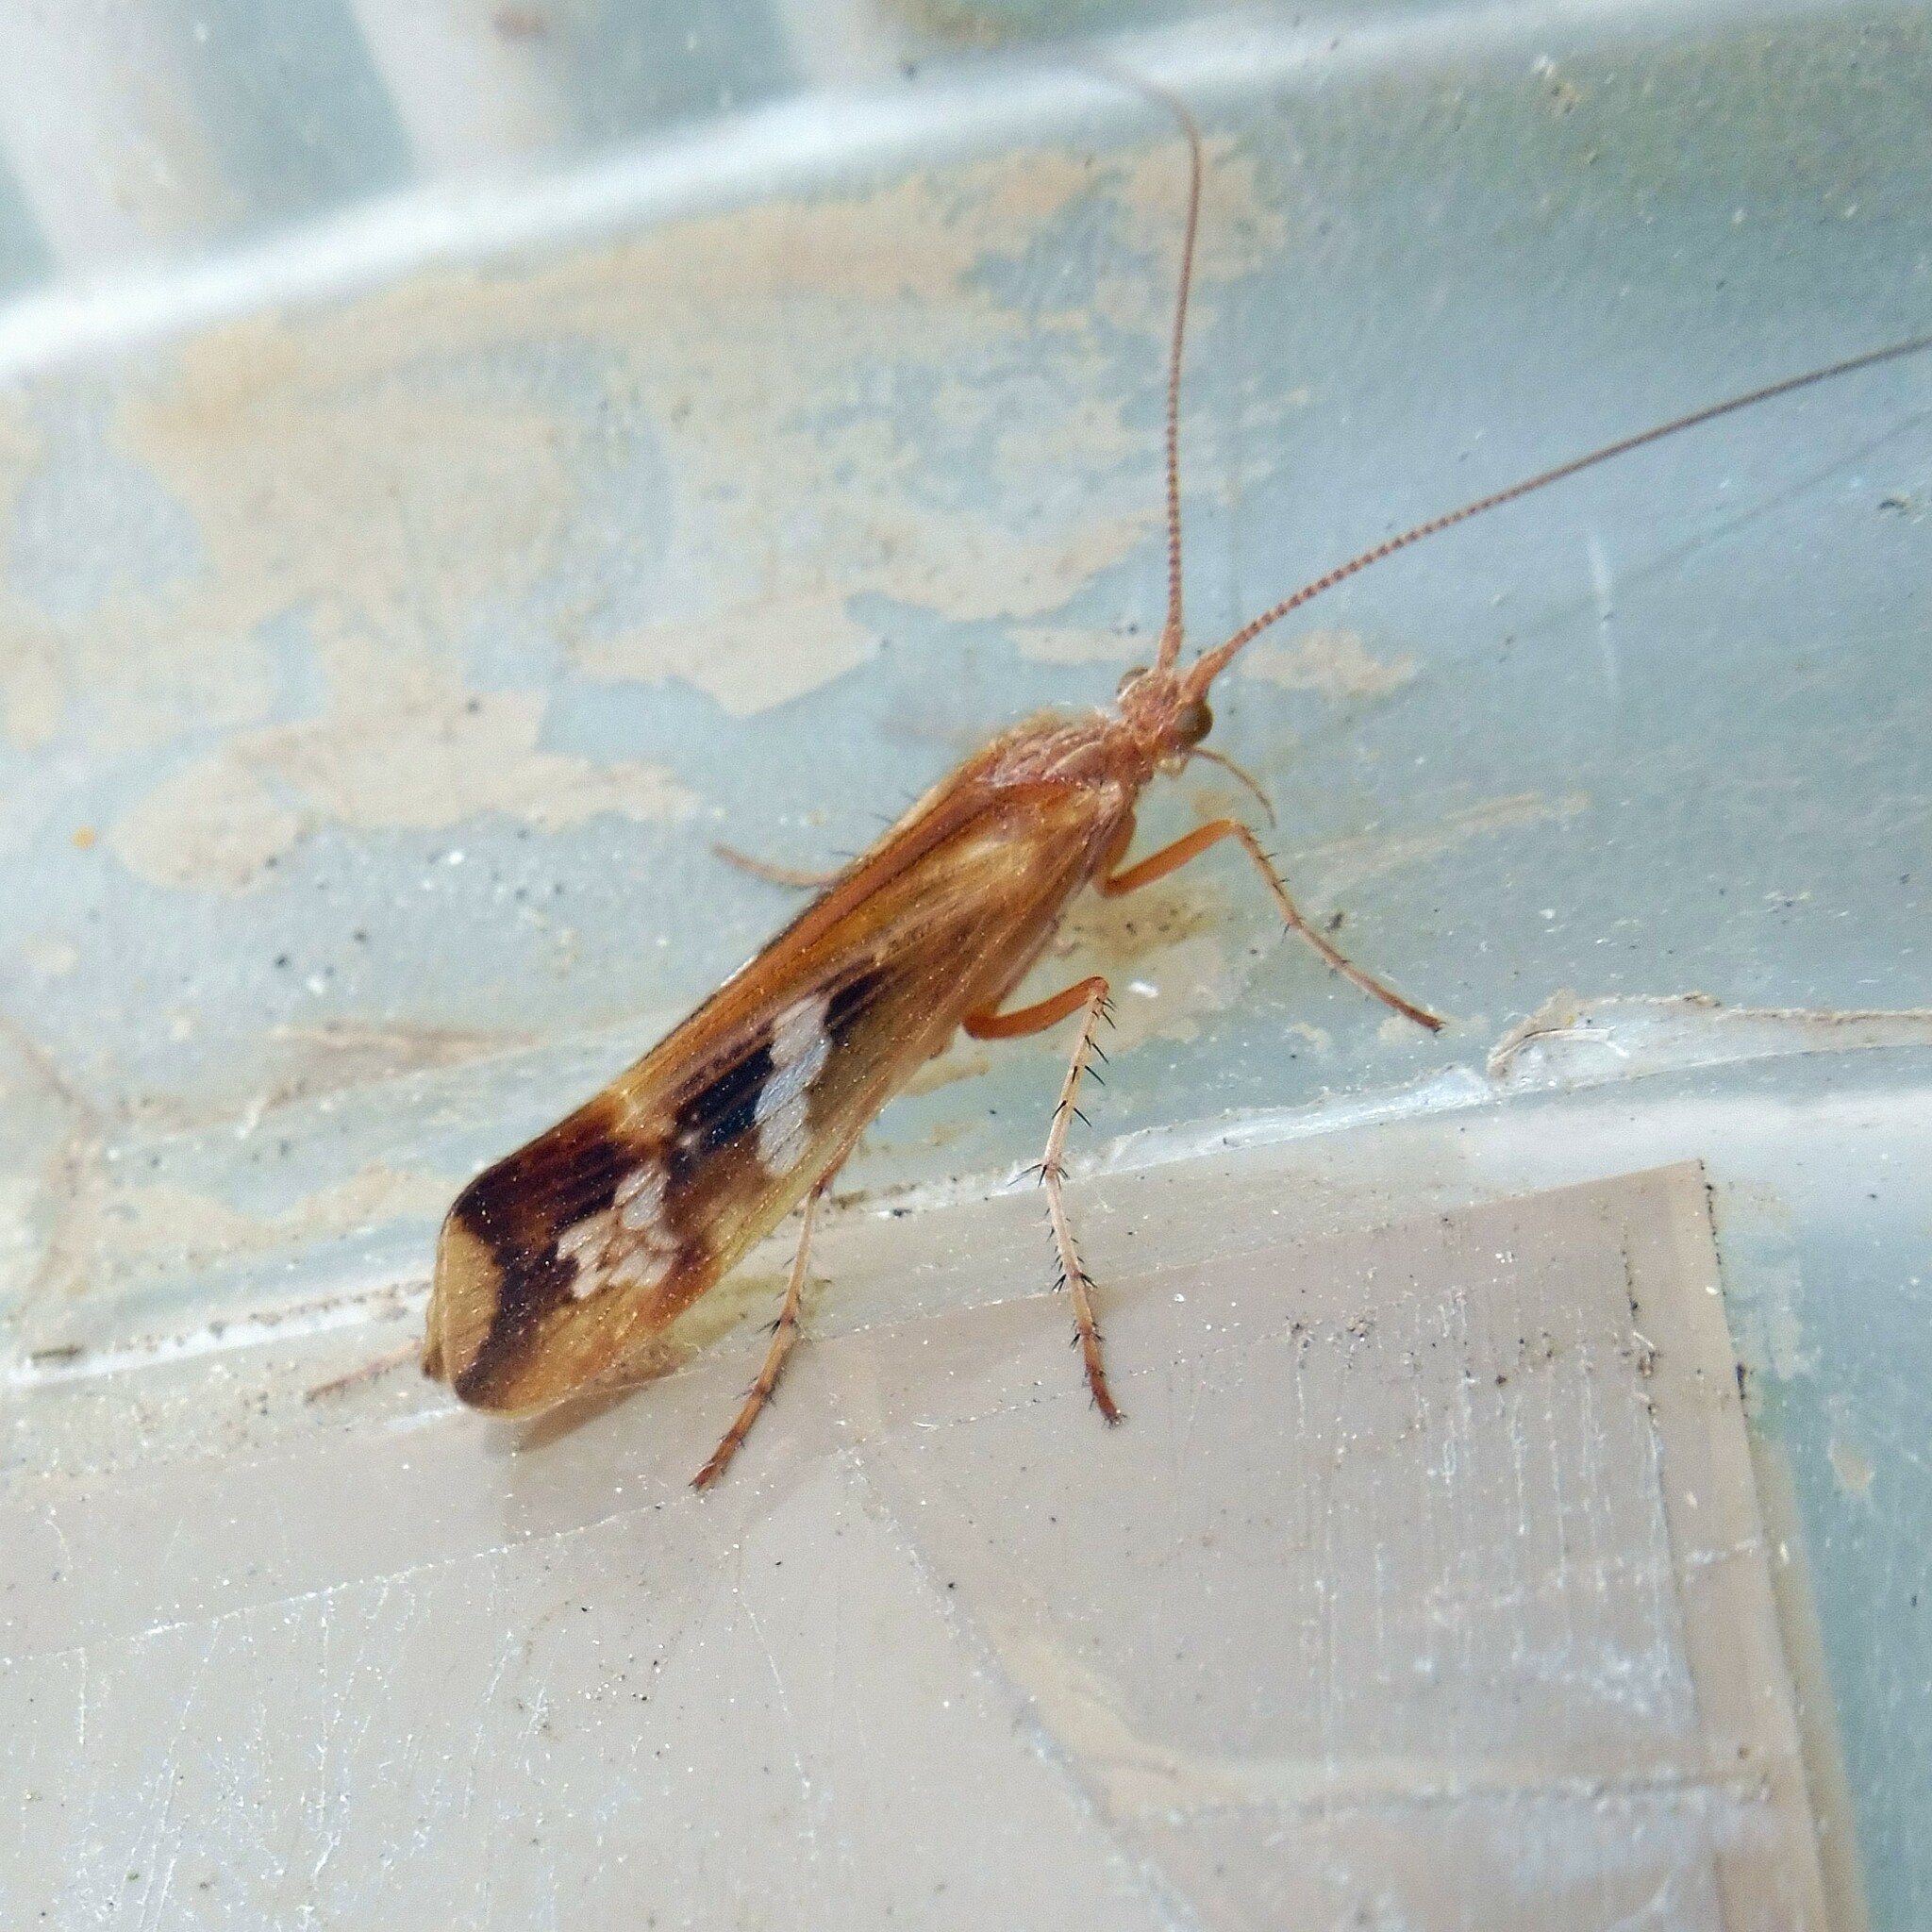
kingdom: Animalia
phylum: Arthropoda
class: Insecta
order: Trichoptera
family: Limnephilidae
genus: Limnephilus
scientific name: Limnephilus lunatus
